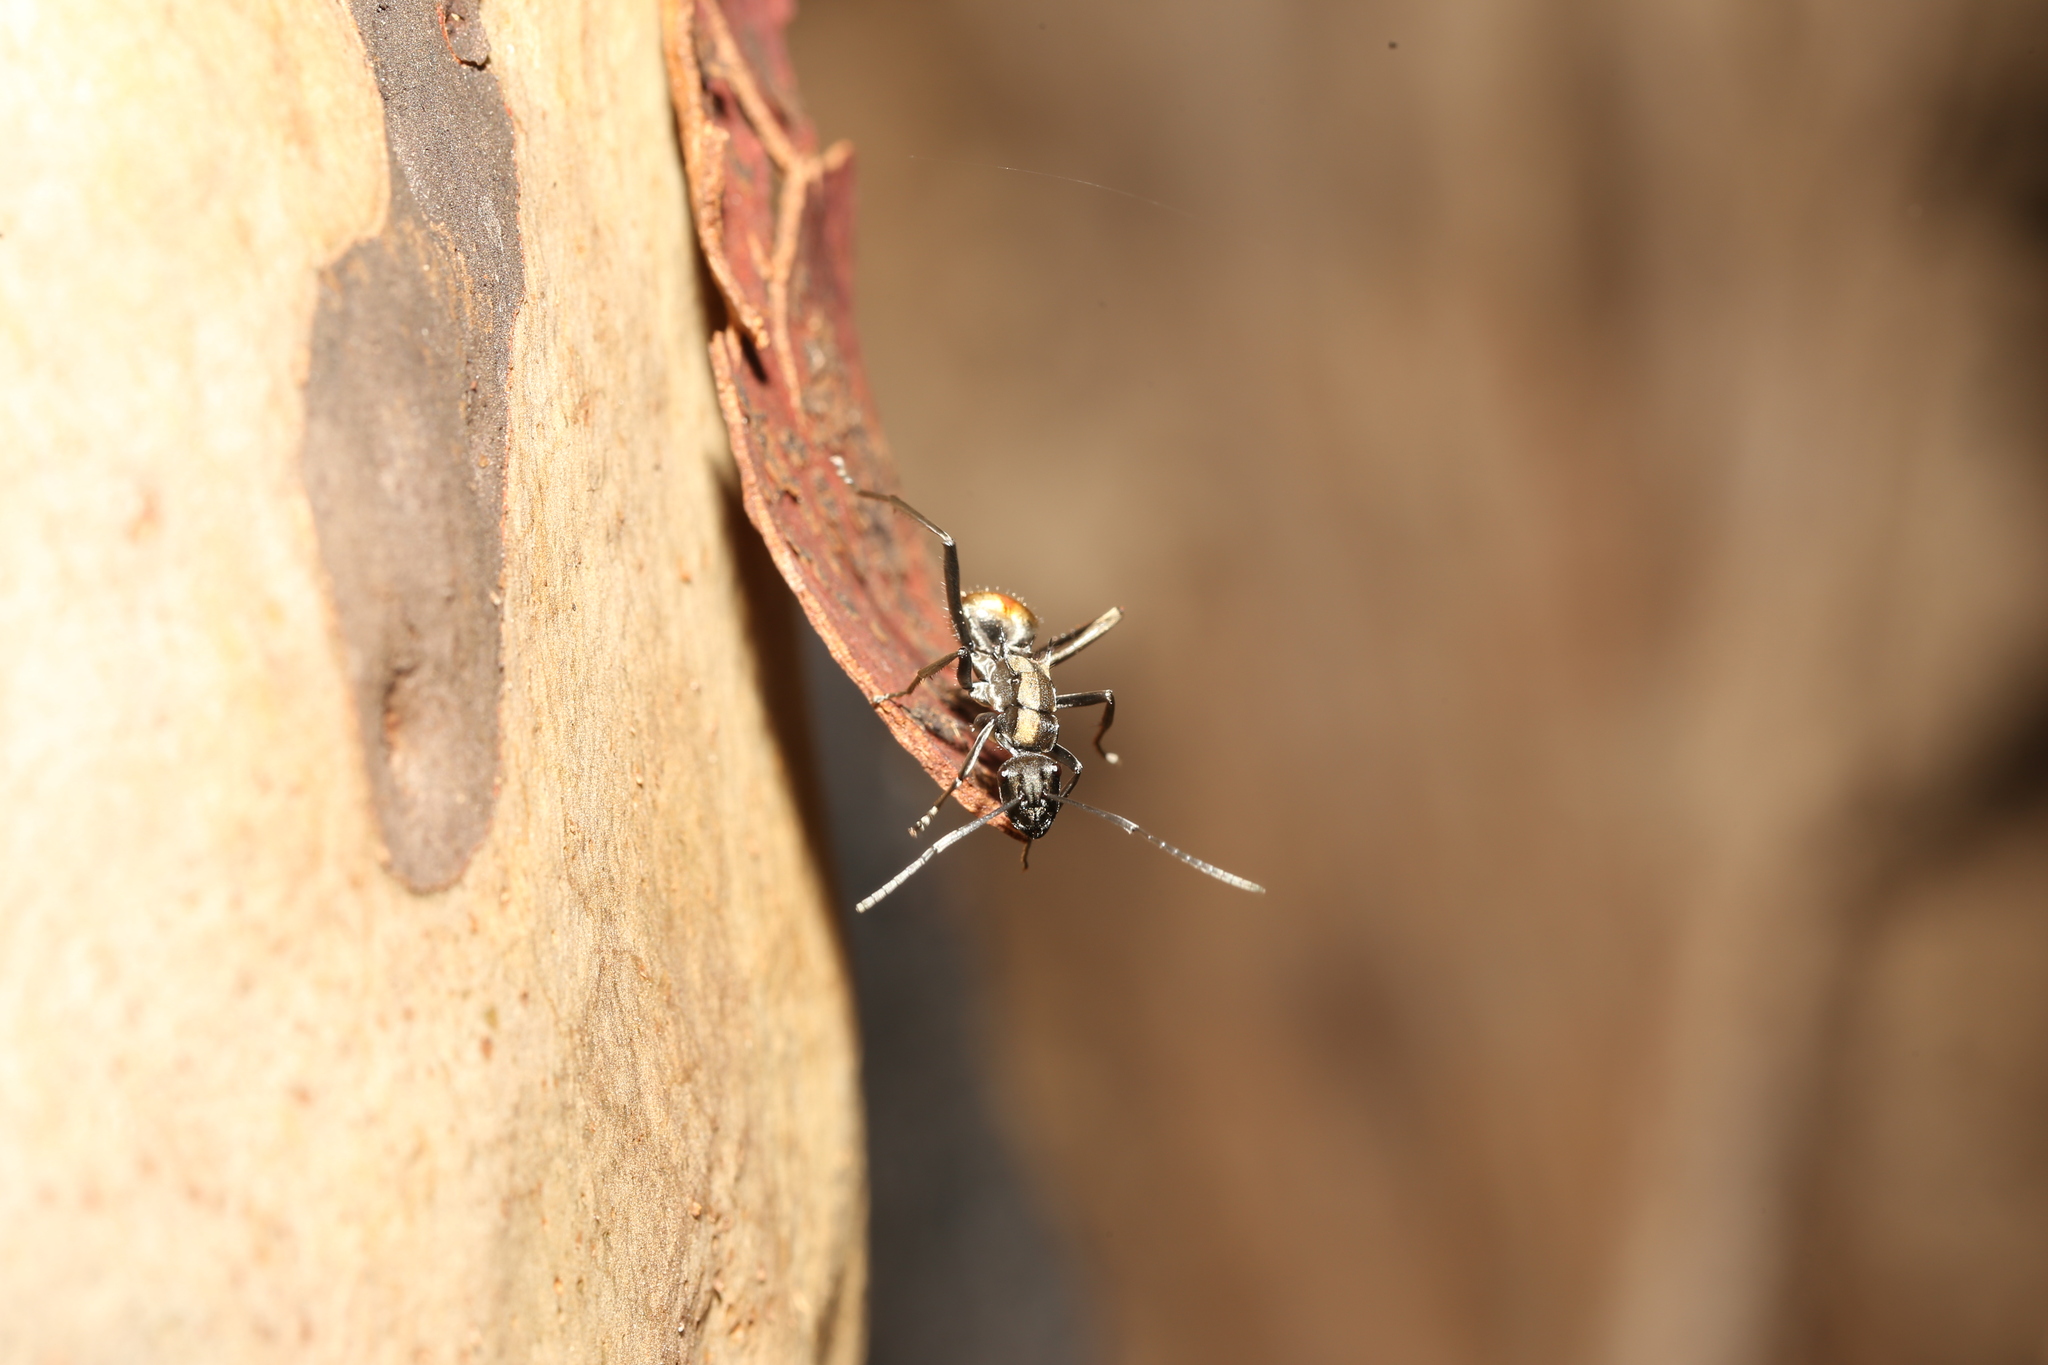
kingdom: Animalia
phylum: Arthropoda
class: Insecta
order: Hymenoptera
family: Formicidae
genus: Polyrhachis
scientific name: Polyrhachis
